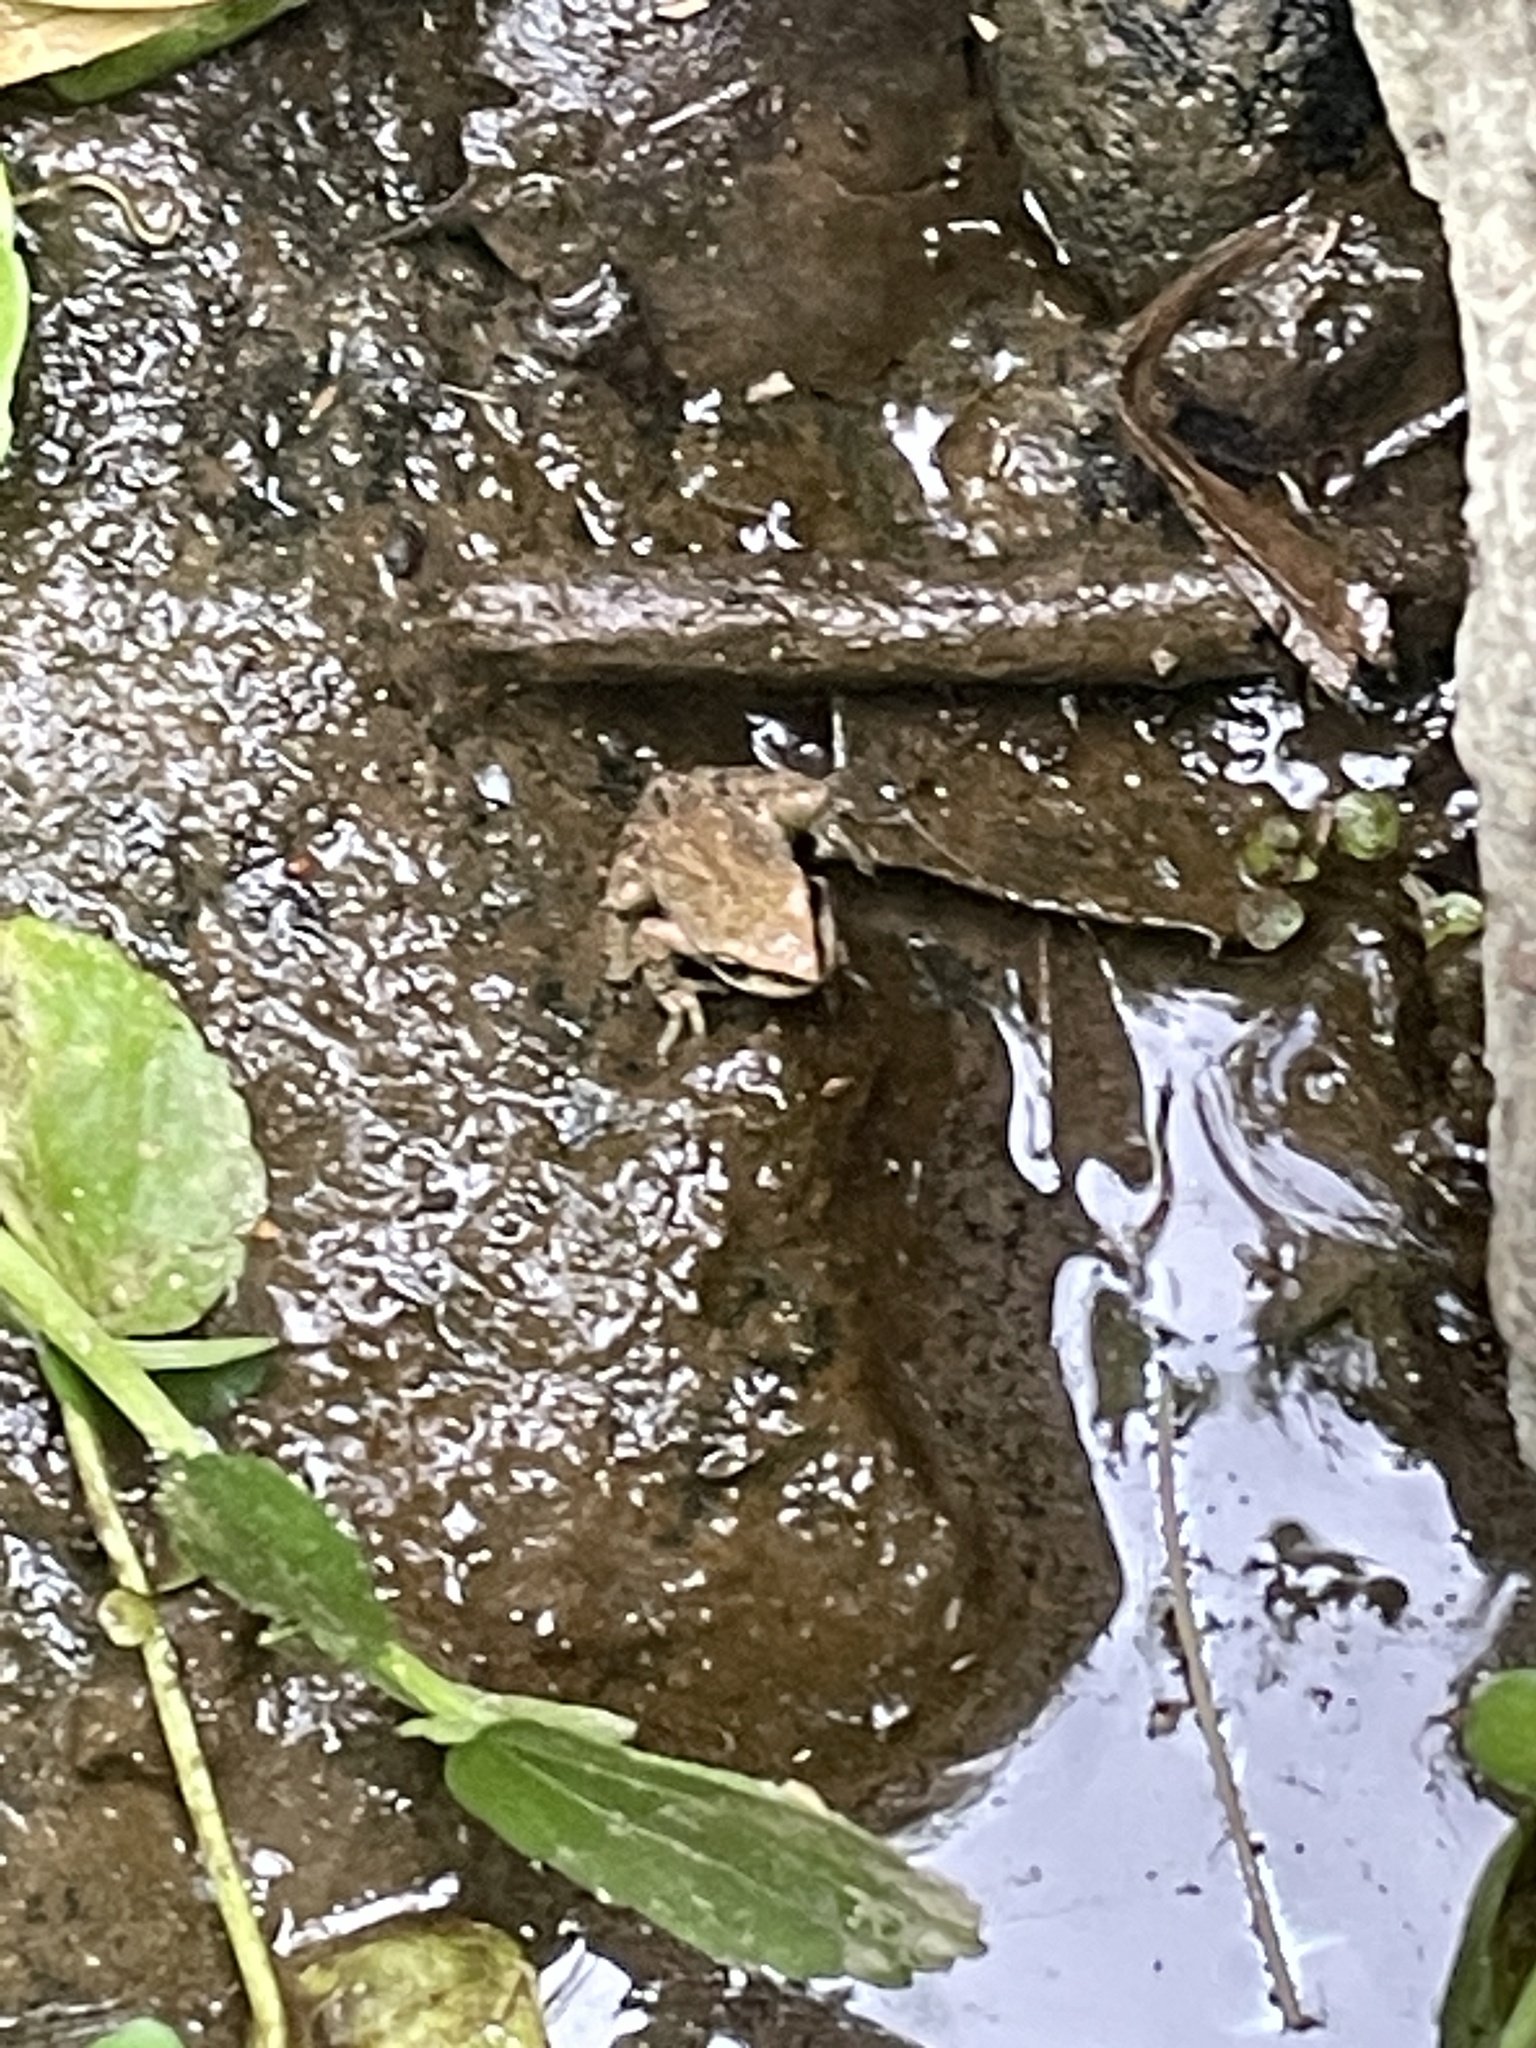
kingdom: Animalia
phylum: Chordata
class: Amphibia
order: Anura
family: Hylidae
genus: Pseudacris
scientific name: Pseudacris regilla
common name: Pacific chorus frog
